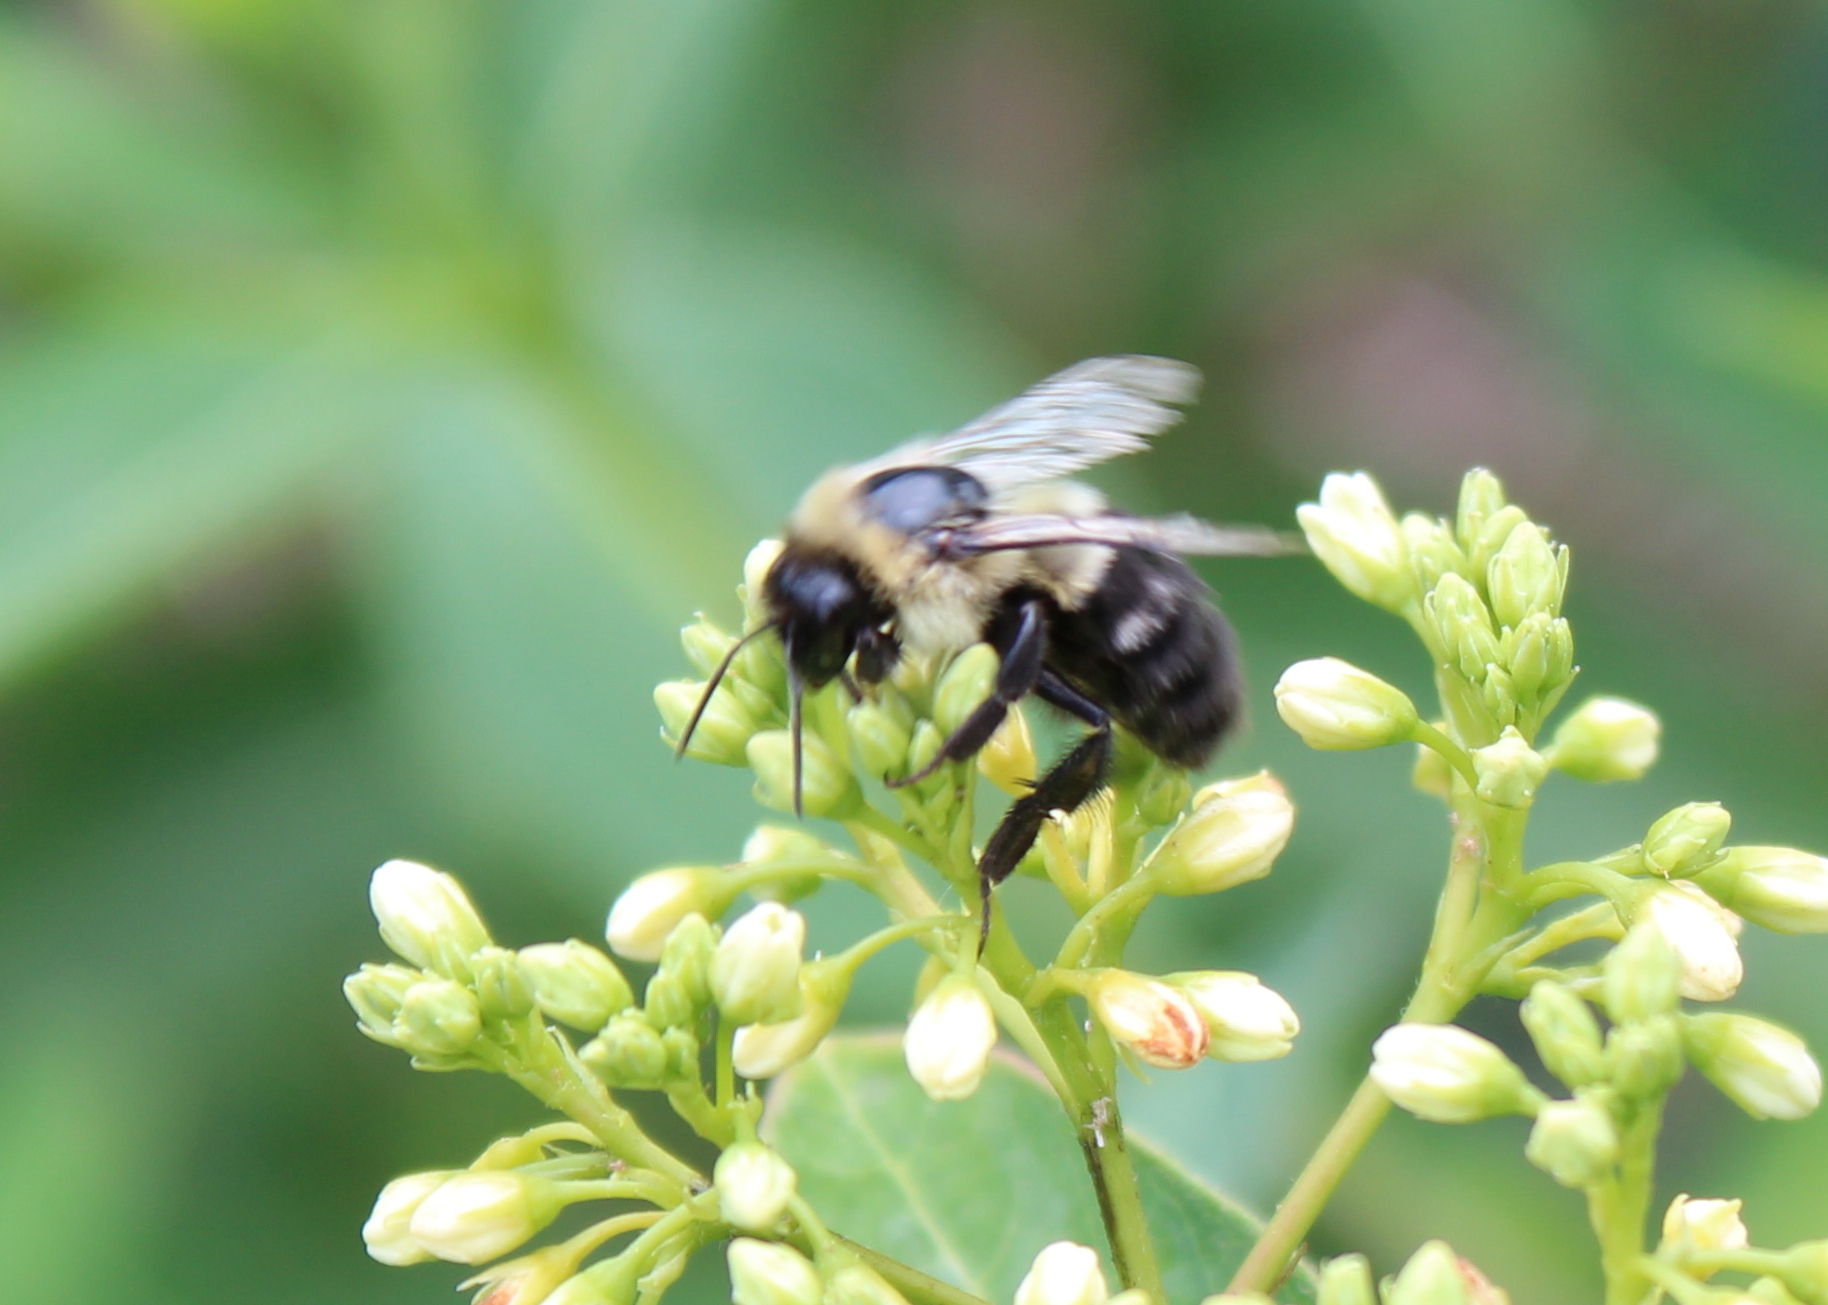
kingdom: Animalia
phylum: Arthropoda
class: Insecta
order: Hymenoptera
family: Apidae
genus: Bombus
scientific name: Bombus impatiens
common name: Common eastern bumble bee
